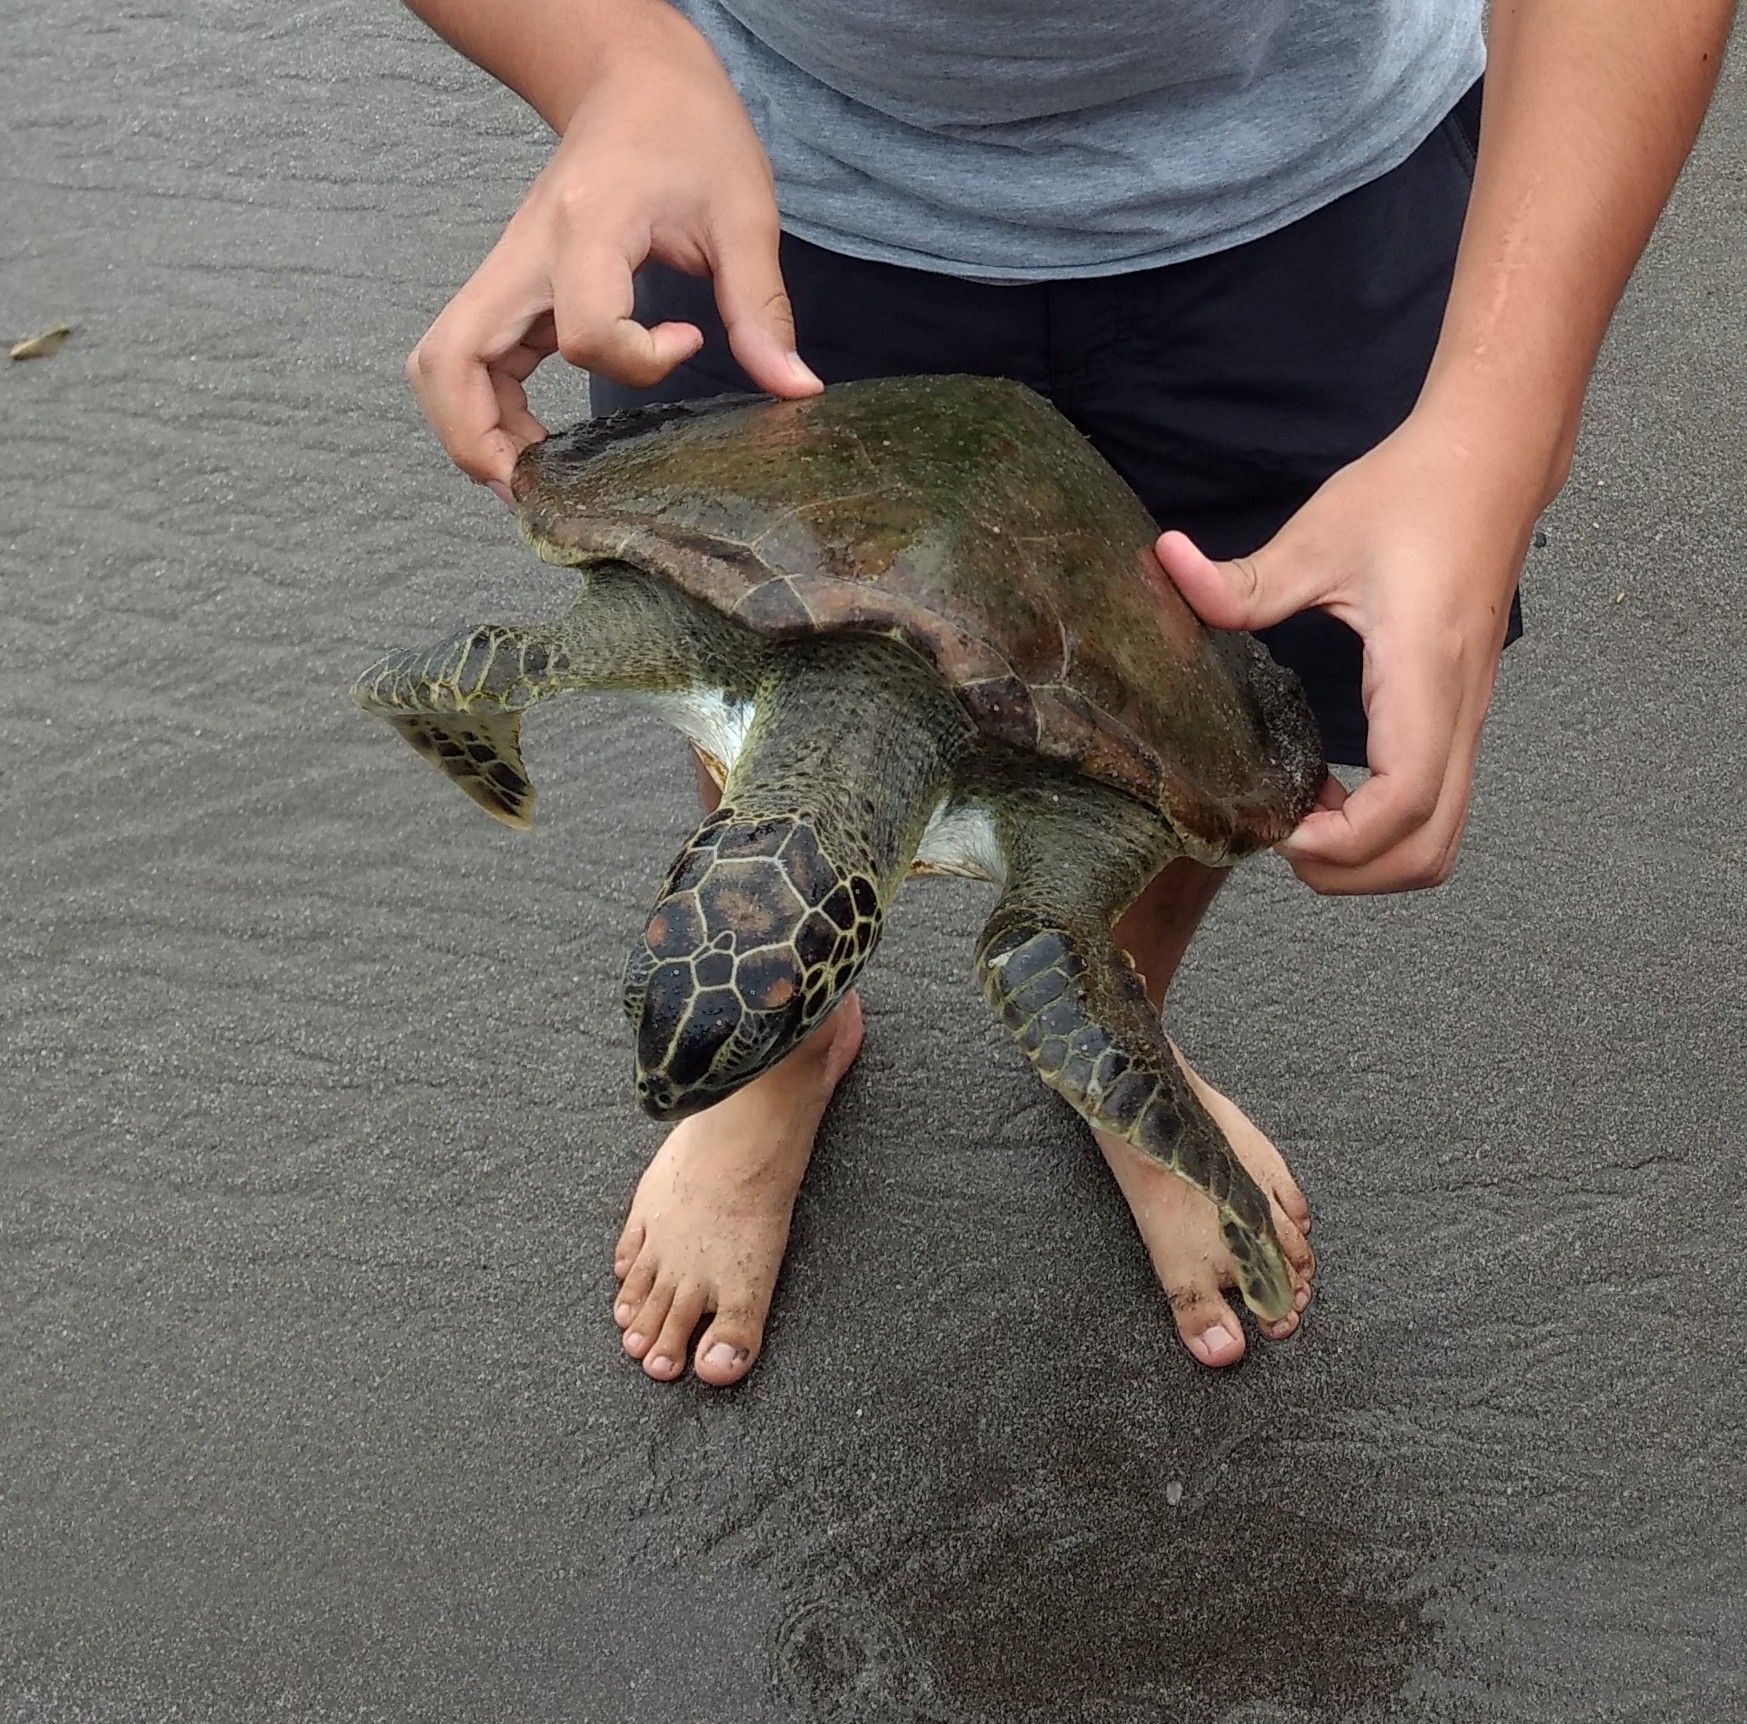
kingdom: Animalia
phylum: Chordata
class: Testudines
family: Cheloniidae
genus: Chelonia
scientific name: Chelonia mydas
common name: Green turtle
